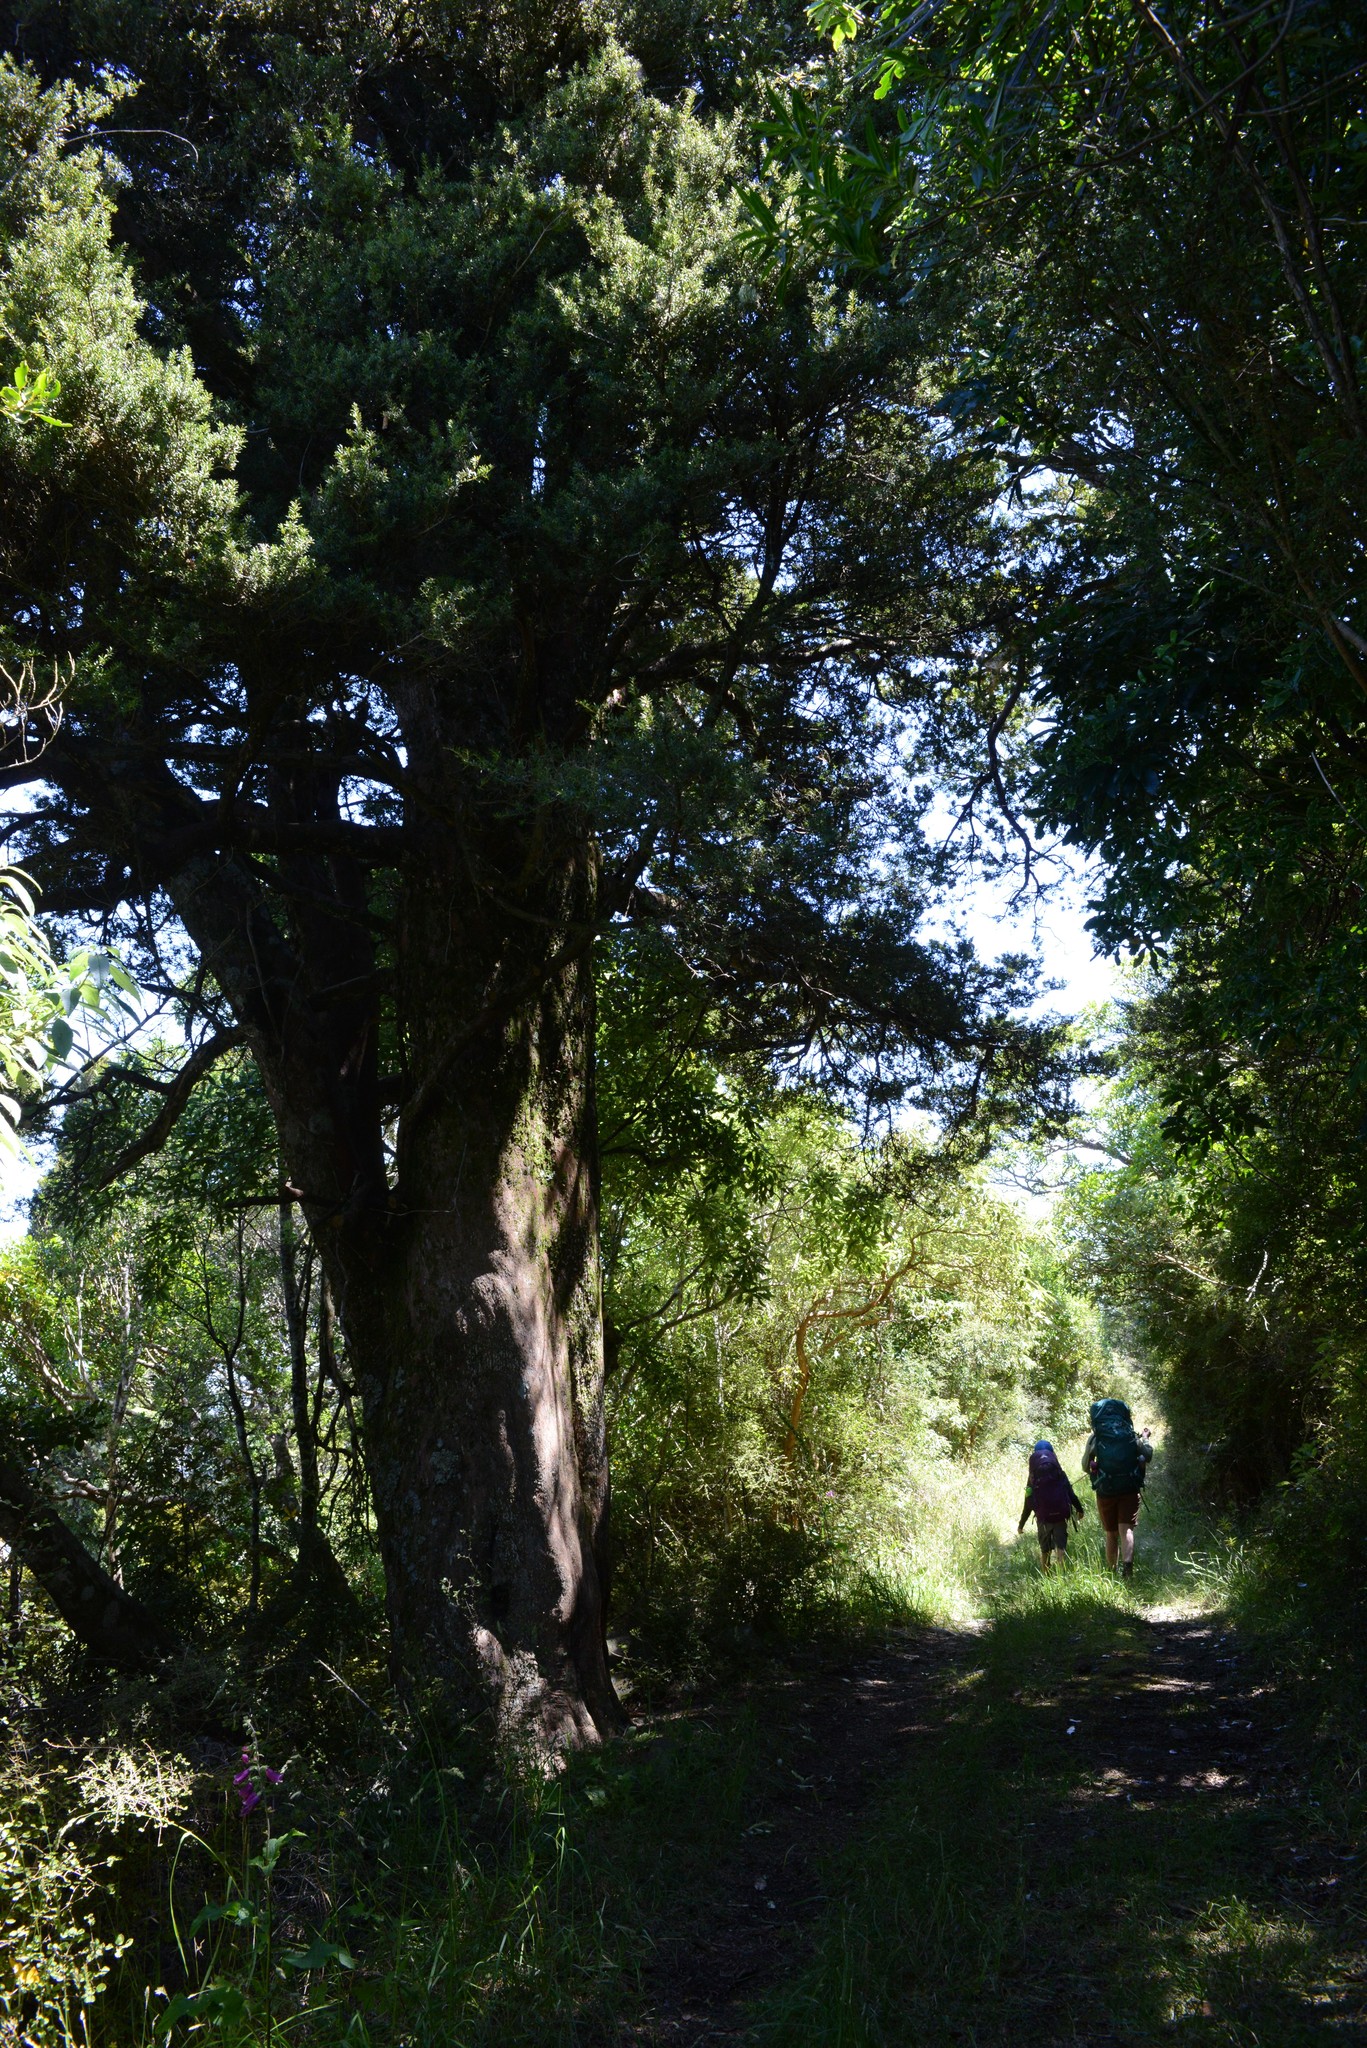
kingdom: Plantae
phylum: Tracheophyta
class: Pinopsida
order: Pinales
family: Podocarpaceae
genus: Podocarpus
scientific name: Podocarpus laetus
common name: Hall's totara
